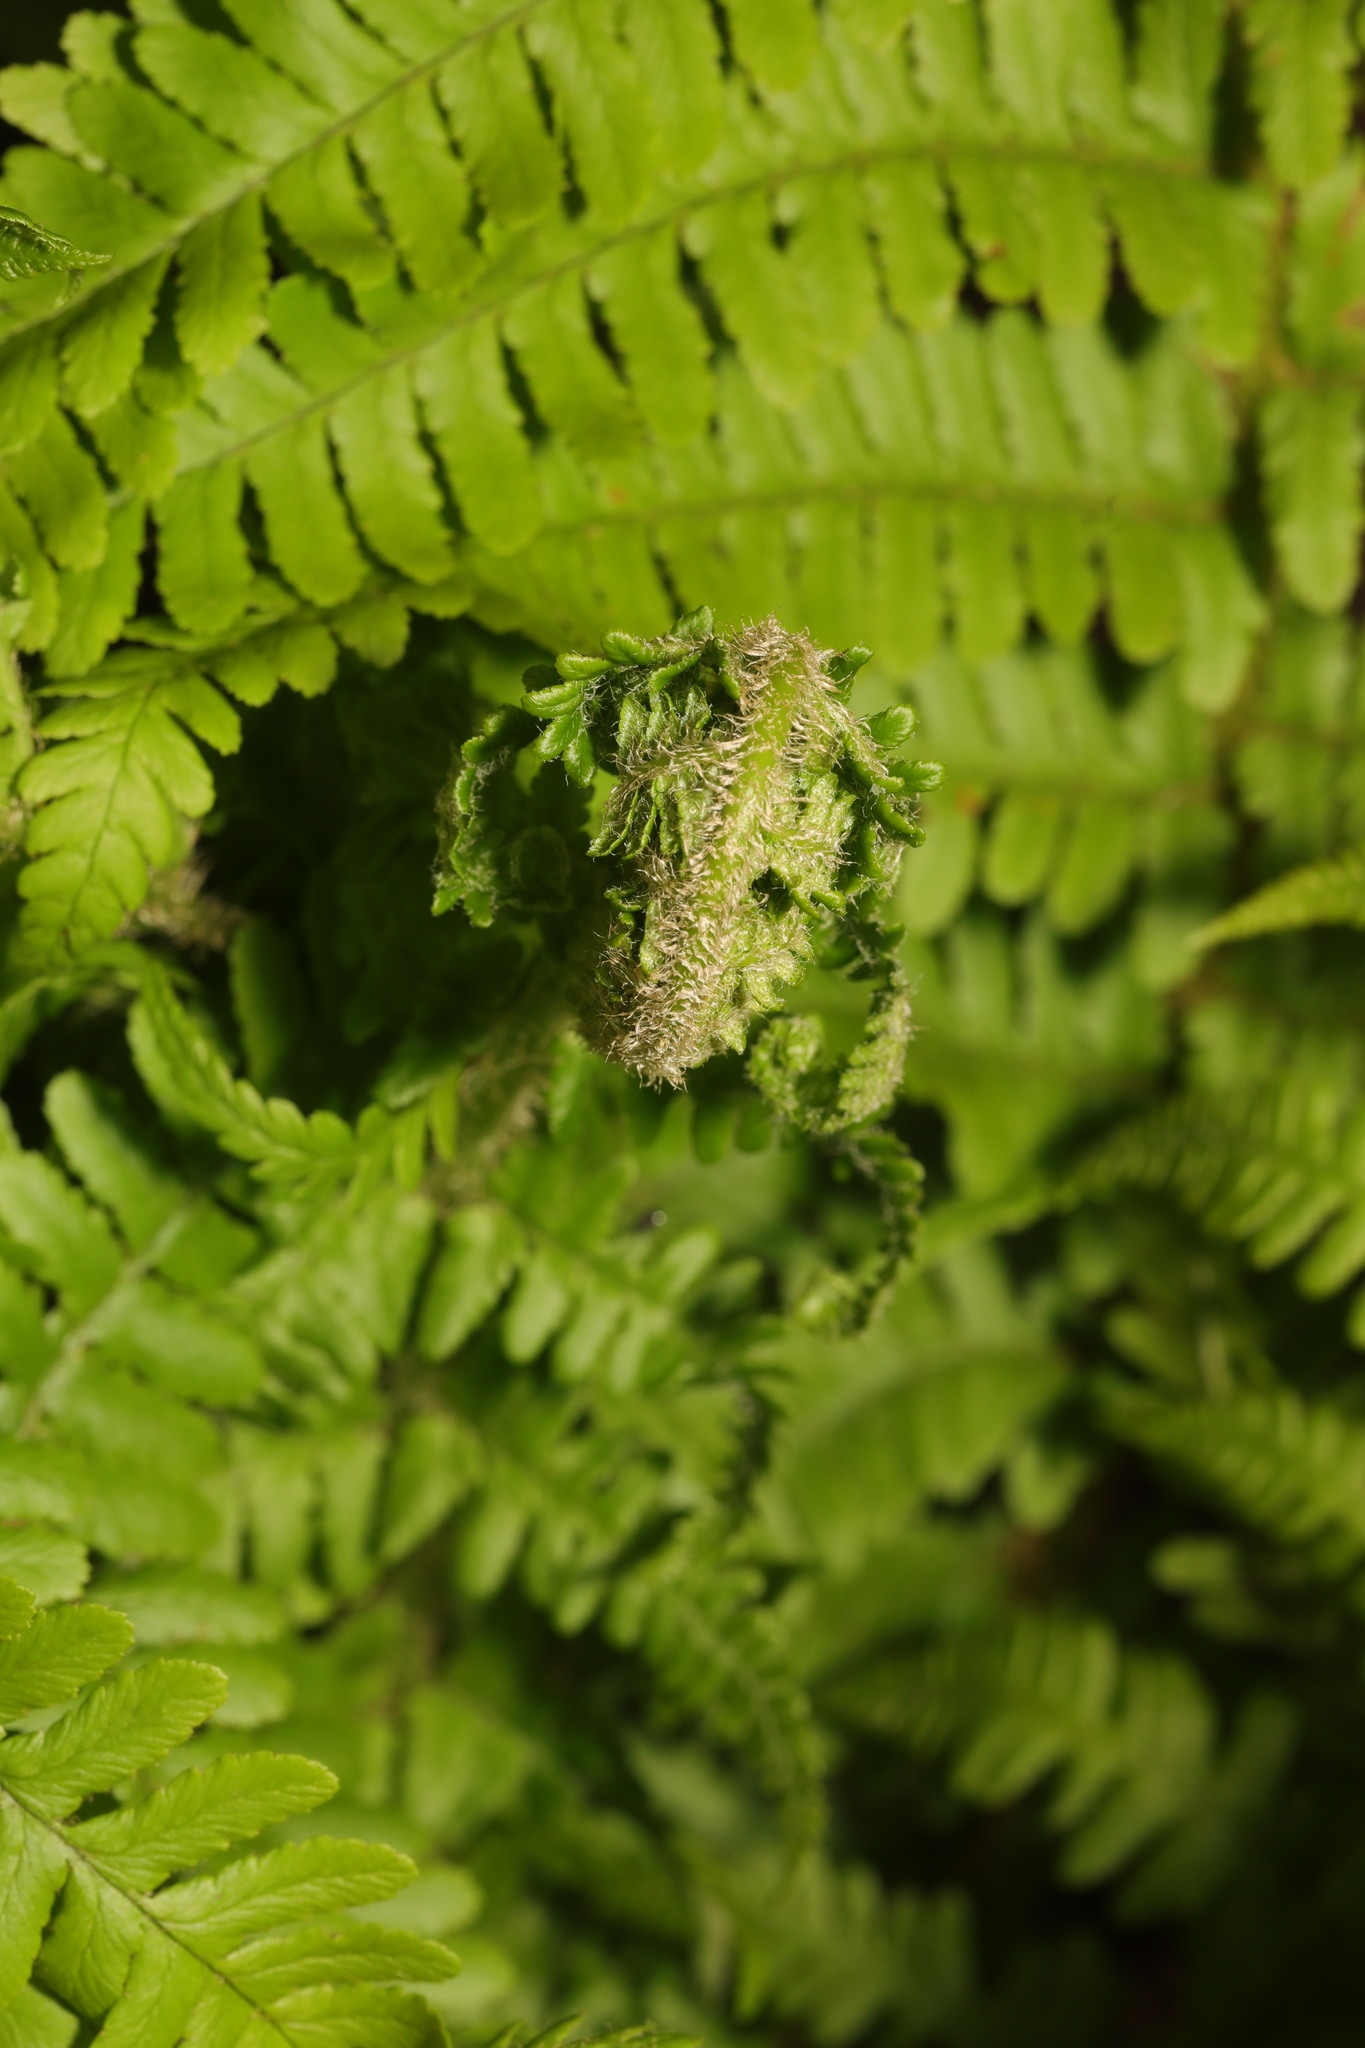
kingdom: Plantae
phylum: Tracheophyta
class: Polypodiopsida
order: Polypodiales
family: Dryopteridaceae
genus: Dryopteris
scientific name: Dryopteris filix-mas
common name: Male fern
